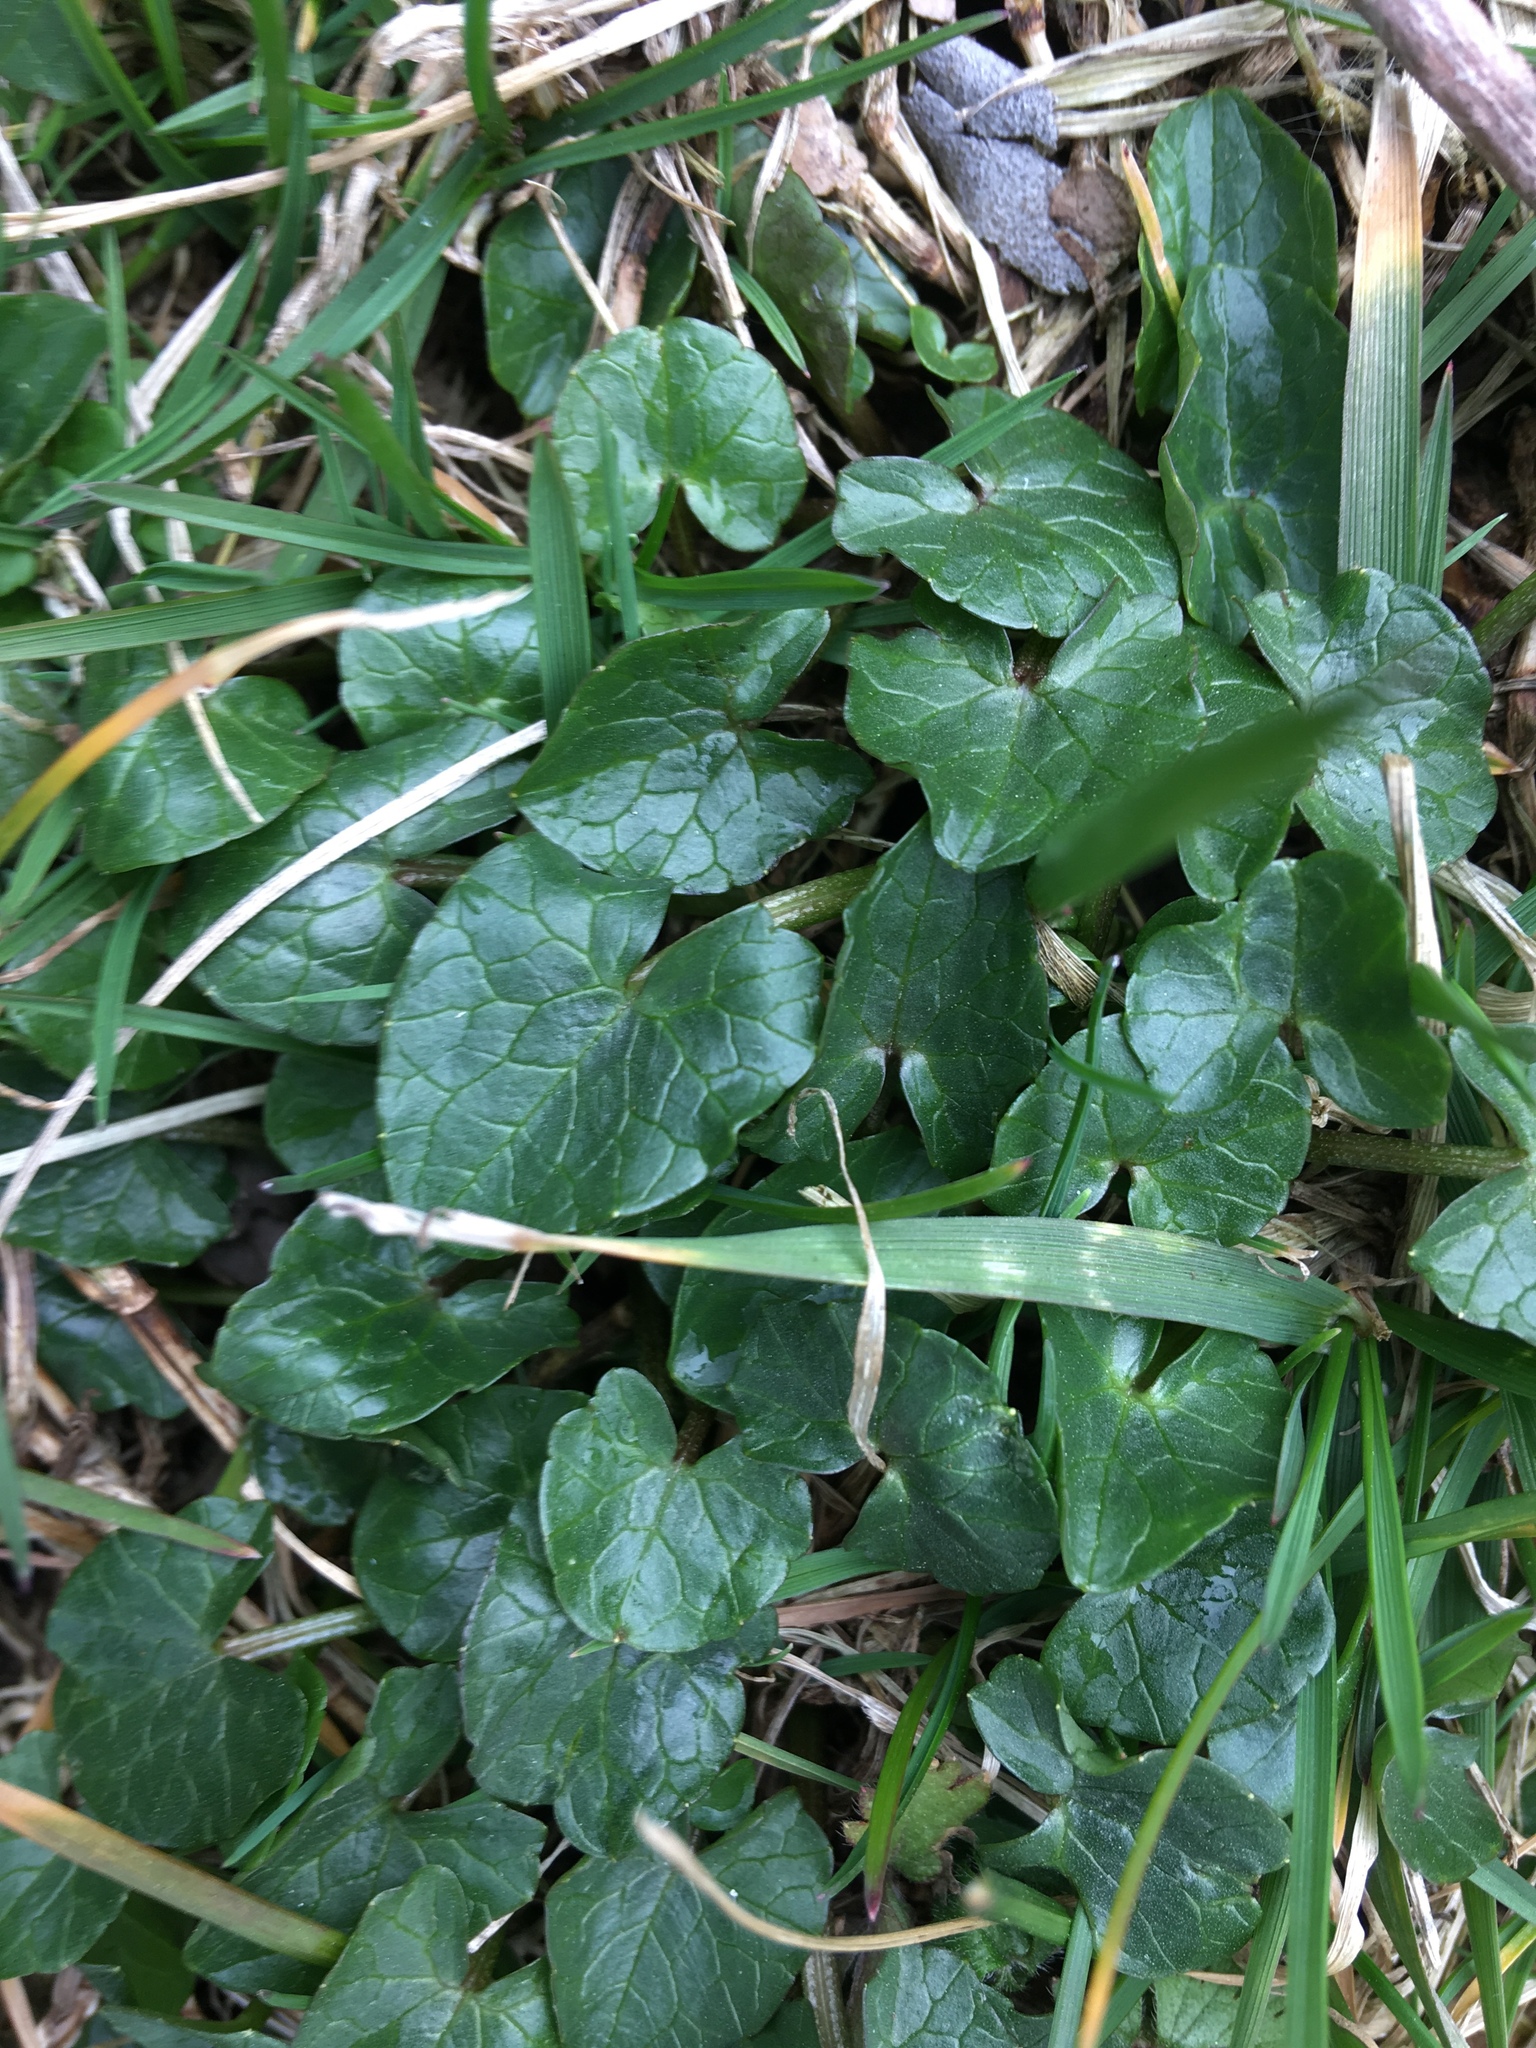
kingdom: Plantae
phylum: Tracheophyta
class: Magnoliopsida
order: Ranunculales
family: Ranunculaceae
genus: Ficaria
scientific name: Ficaria verna
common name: Lesser celandine
